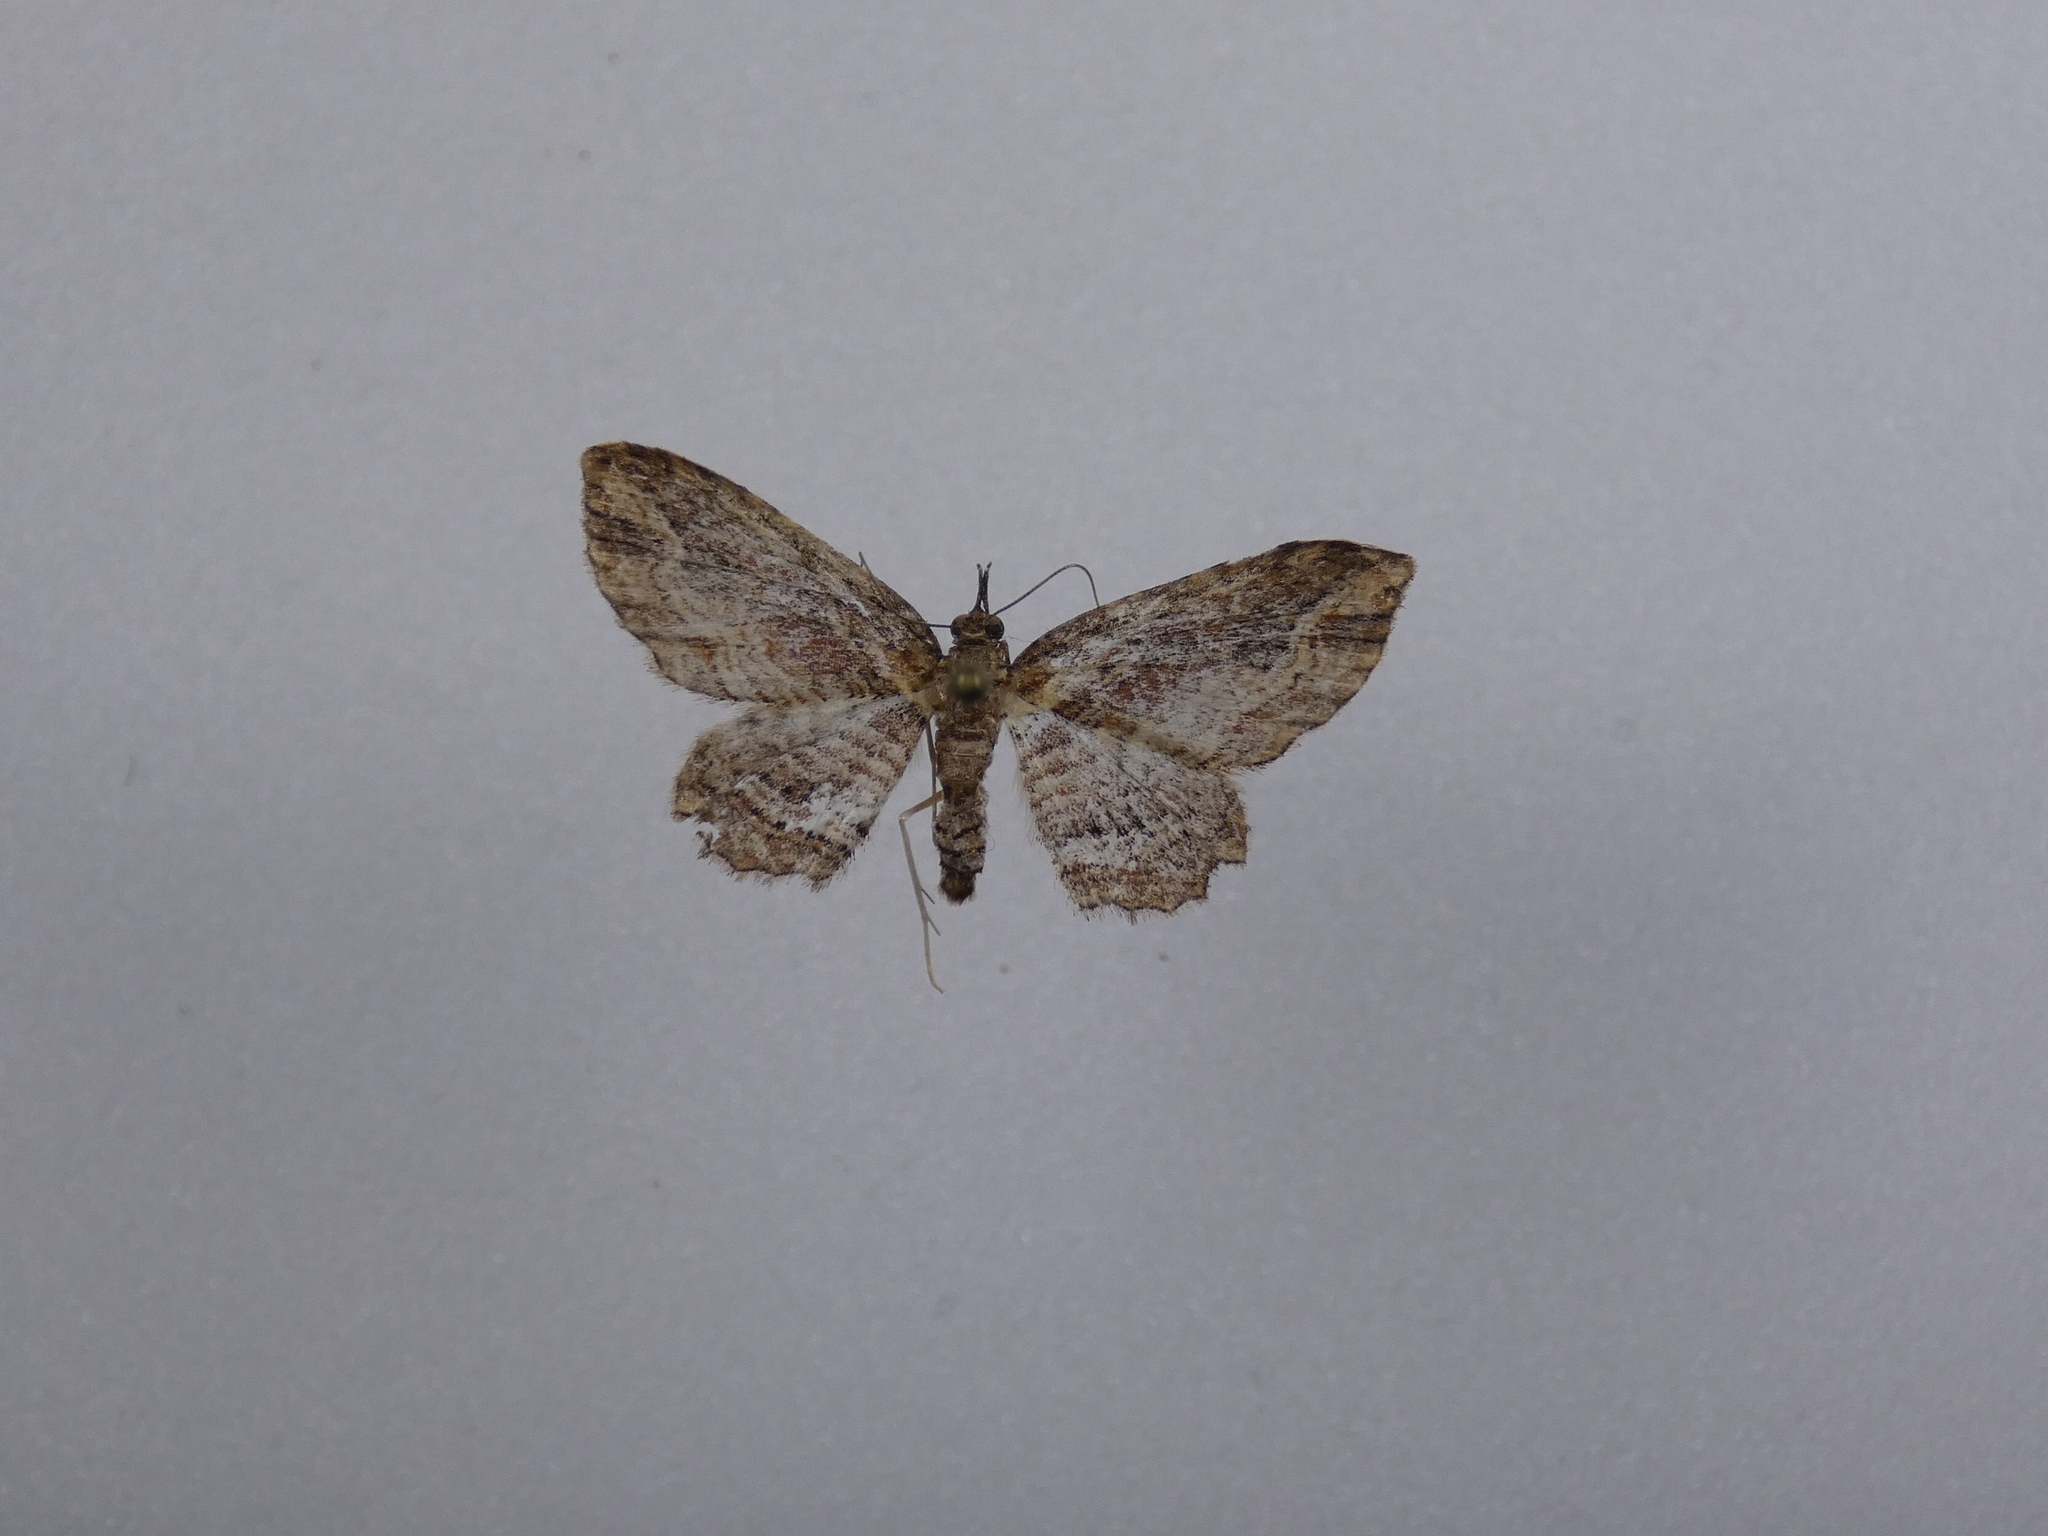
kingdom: Animalia
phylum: Arthropoda
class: Insecta
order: Lepidoptera
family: Geometridae
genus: Chloroclystis
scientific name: Chloroclystis filata
